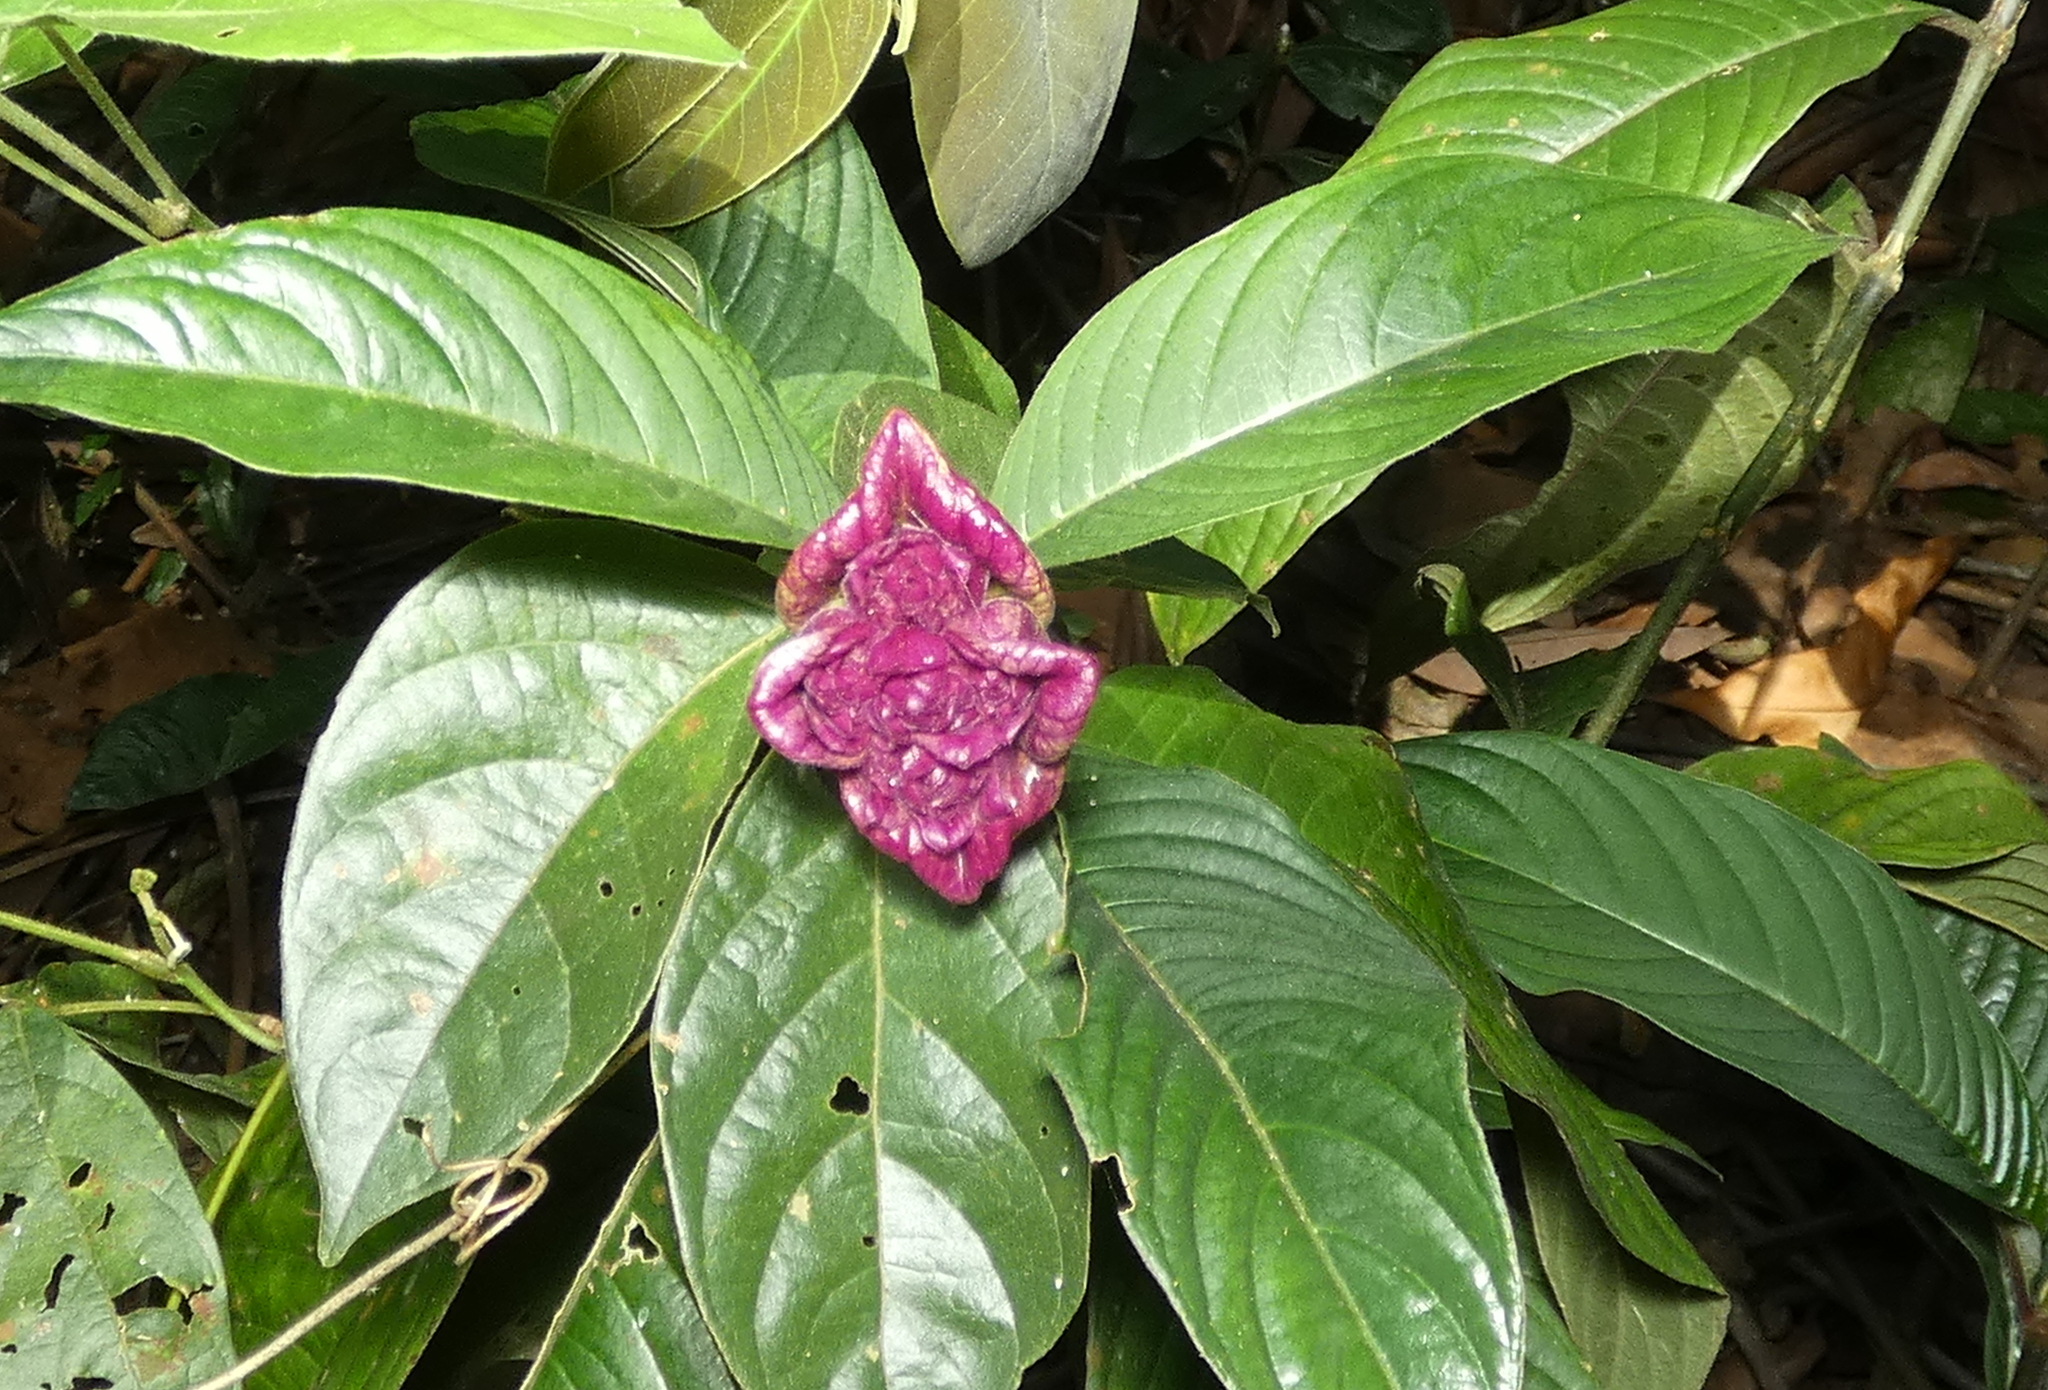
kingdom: Plantae
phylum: Tracheophyta
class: Magnoliopsida
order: Gentianales
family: Rubiaceae
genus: Palicourea
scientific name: Palicourea colorata
